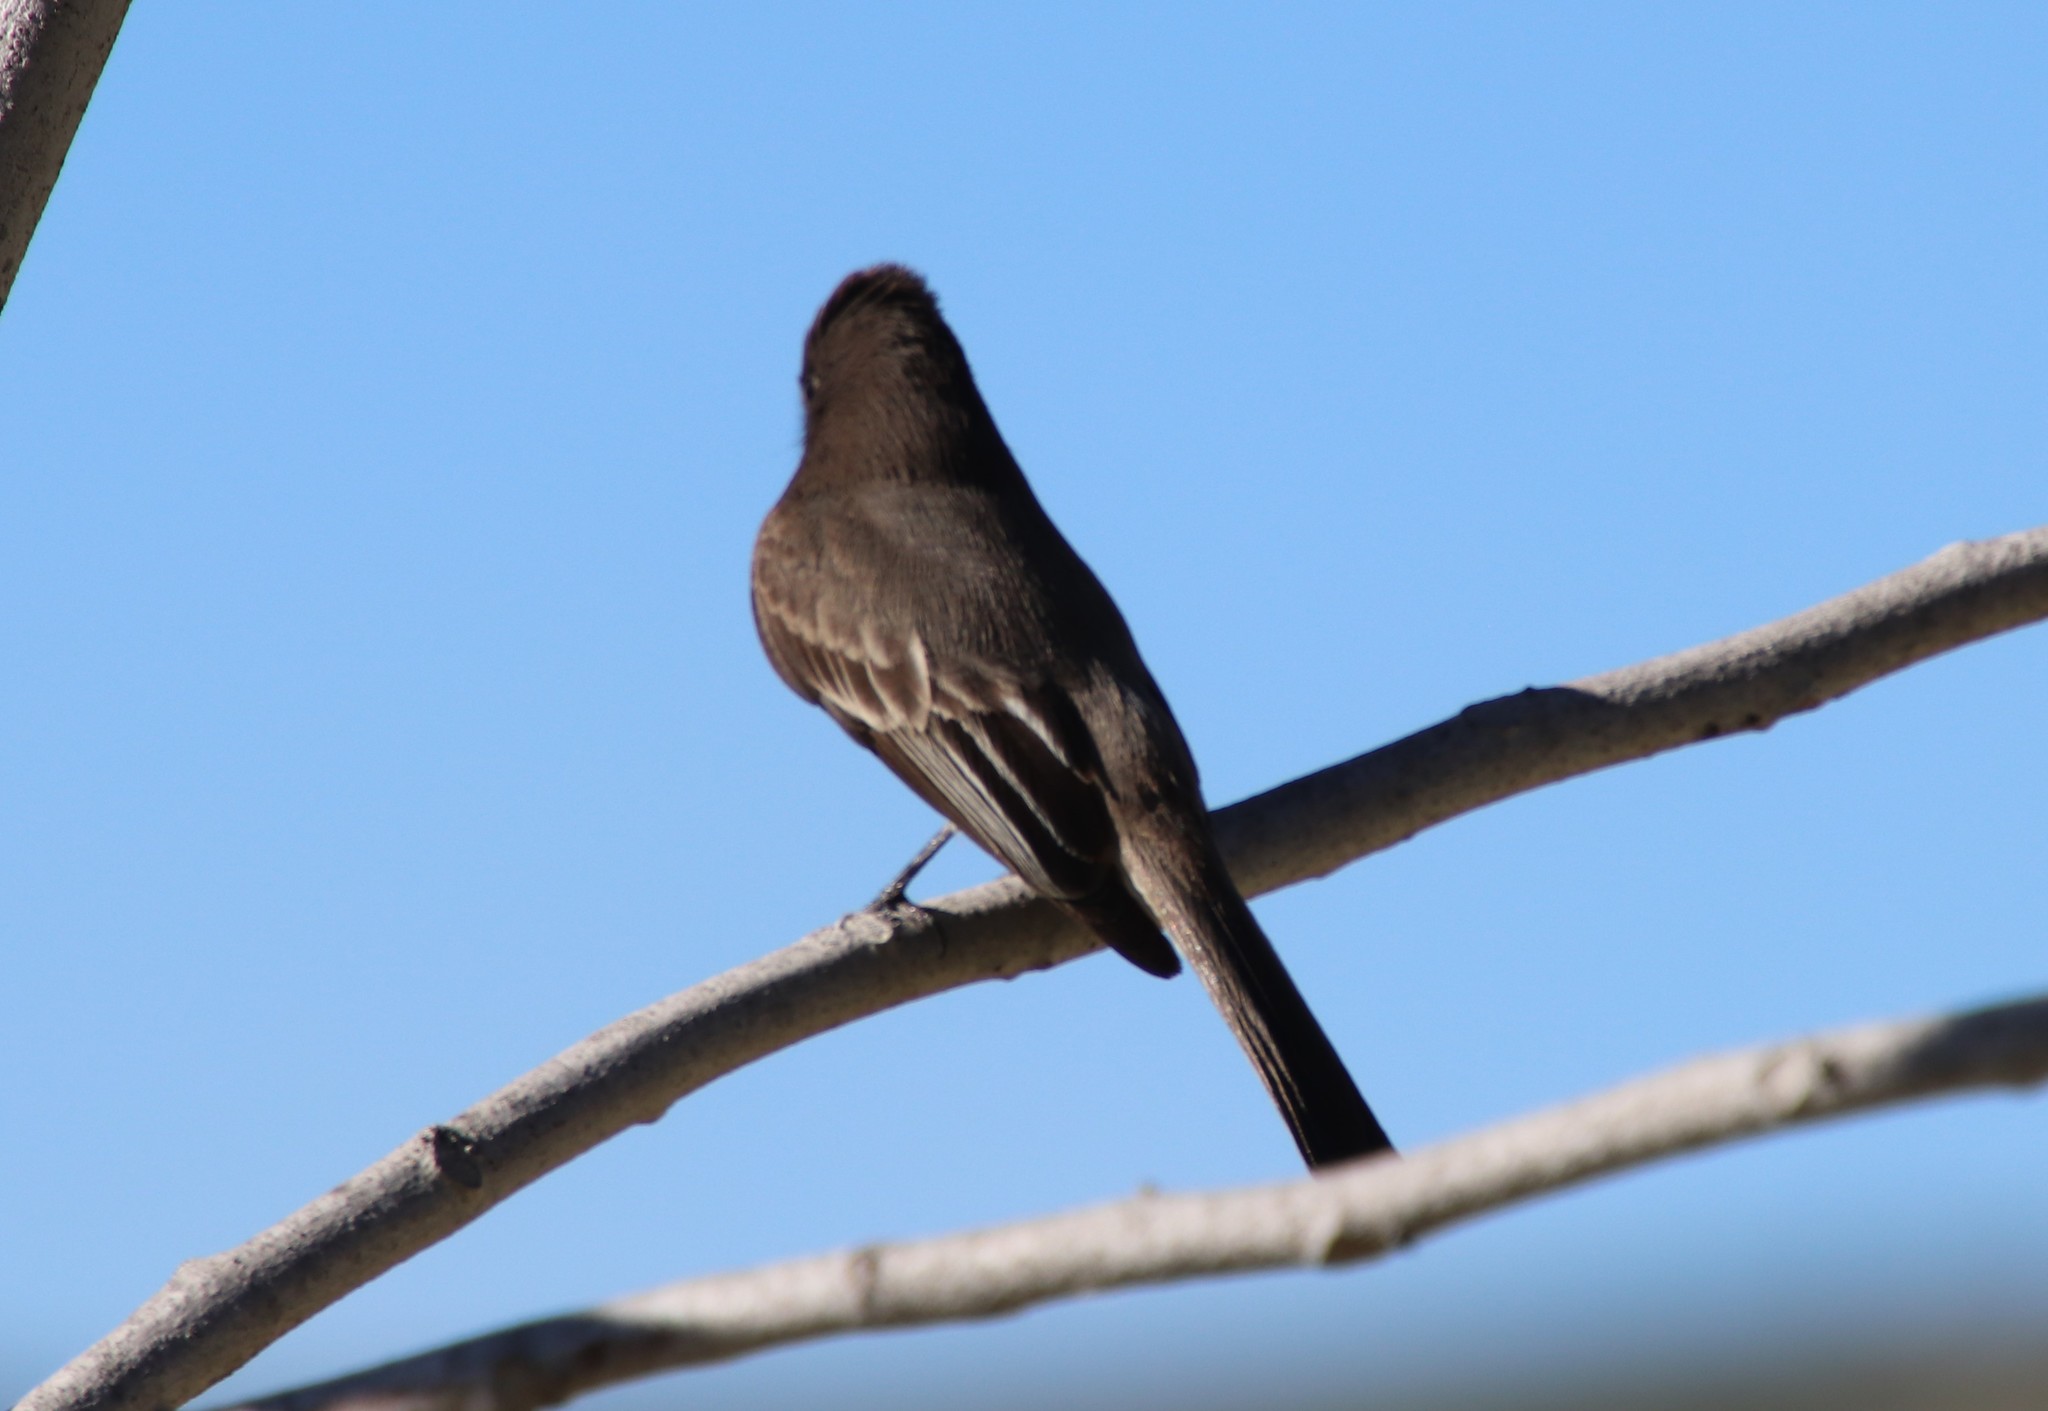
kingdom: Animalia
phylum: Chordata
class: Aves
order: Passeriformes
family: Tyrannidae
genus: Sayornis
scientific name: Sayornis nigricans
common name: Black phoebe
